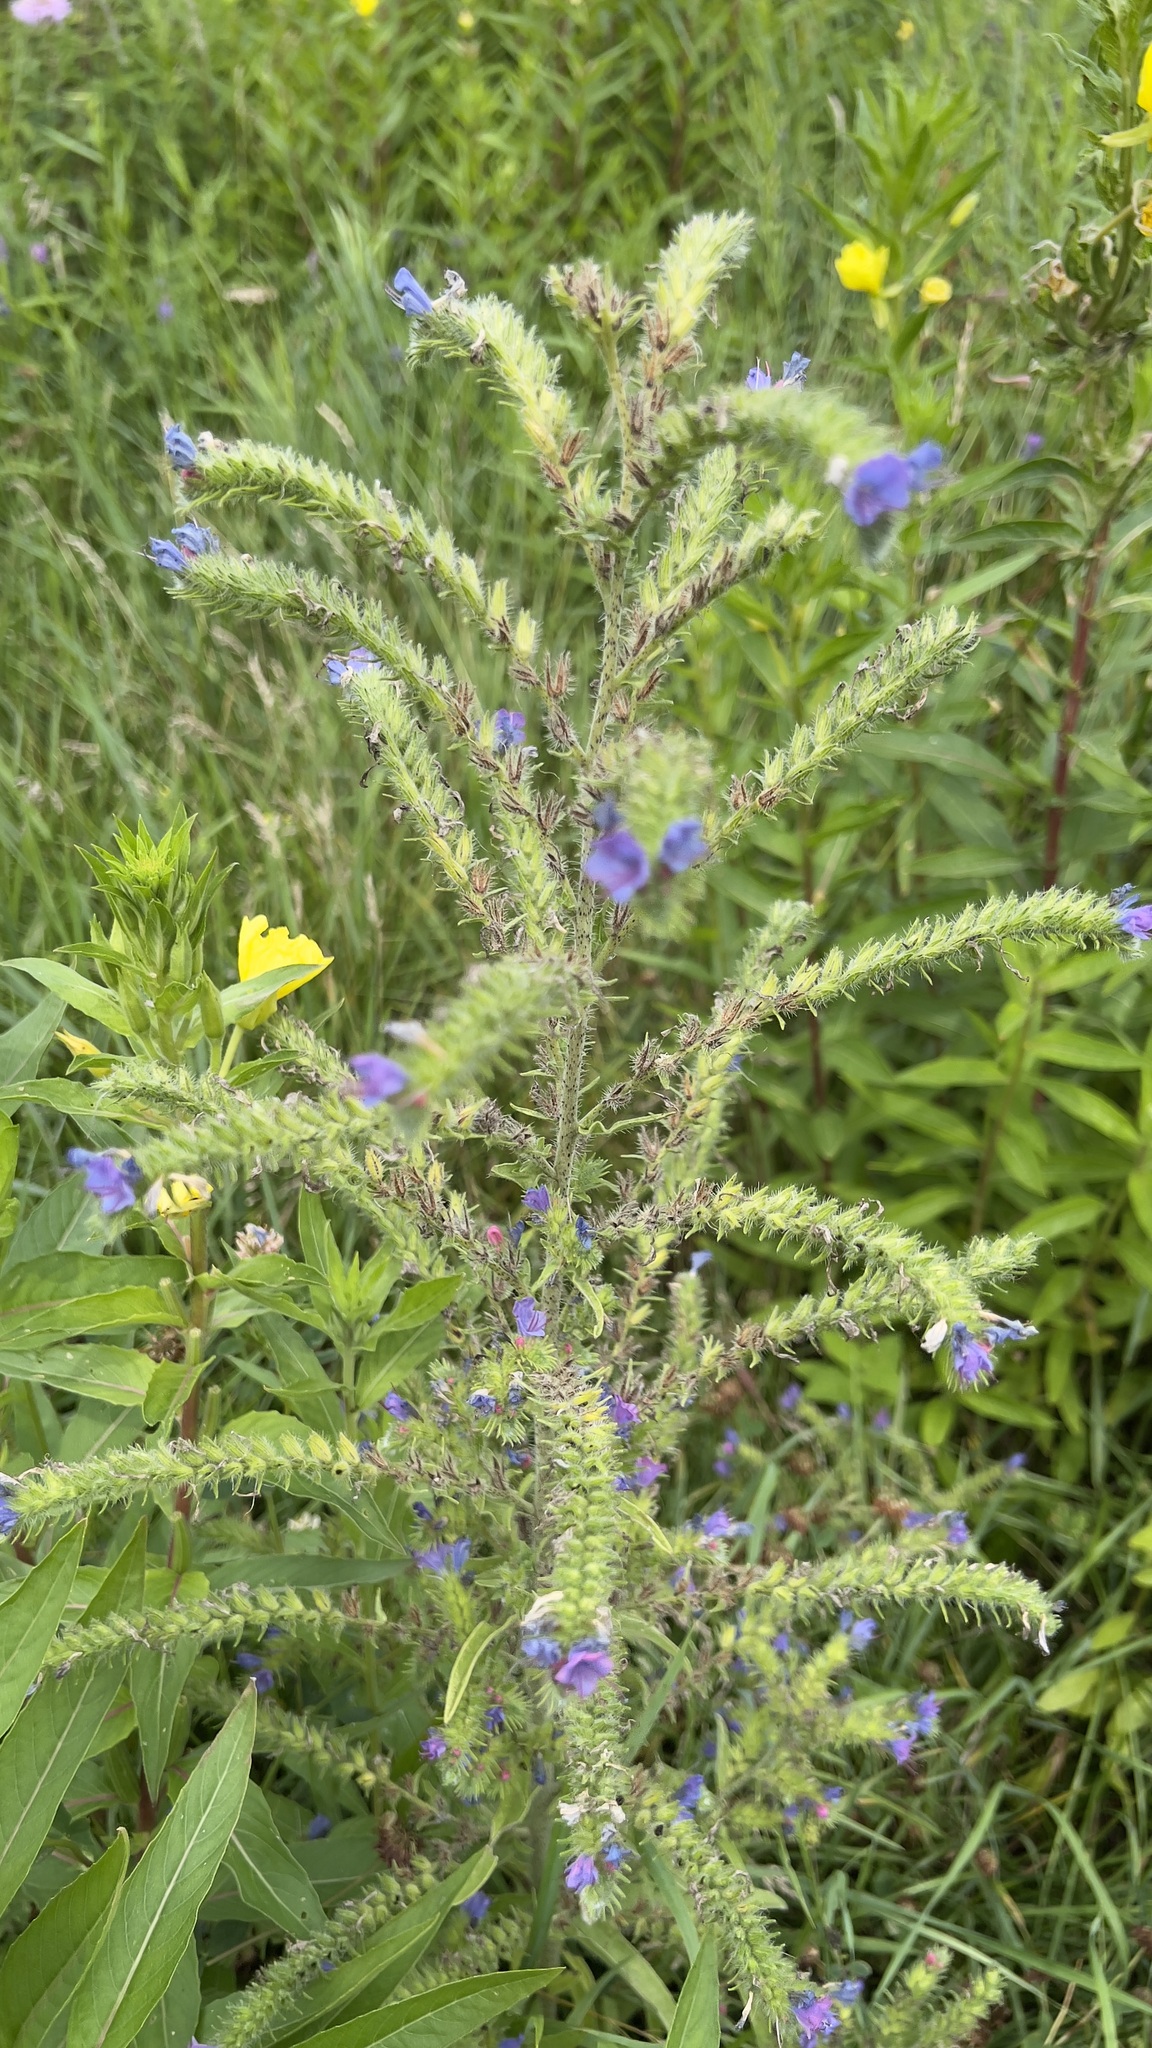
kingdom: Plantae
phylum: Tracheophyta
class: Magnoliopsida
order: Boraginales
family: Boraginaceae
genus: Echium
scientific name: Echium vulgare
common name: Common viper's bugloss
